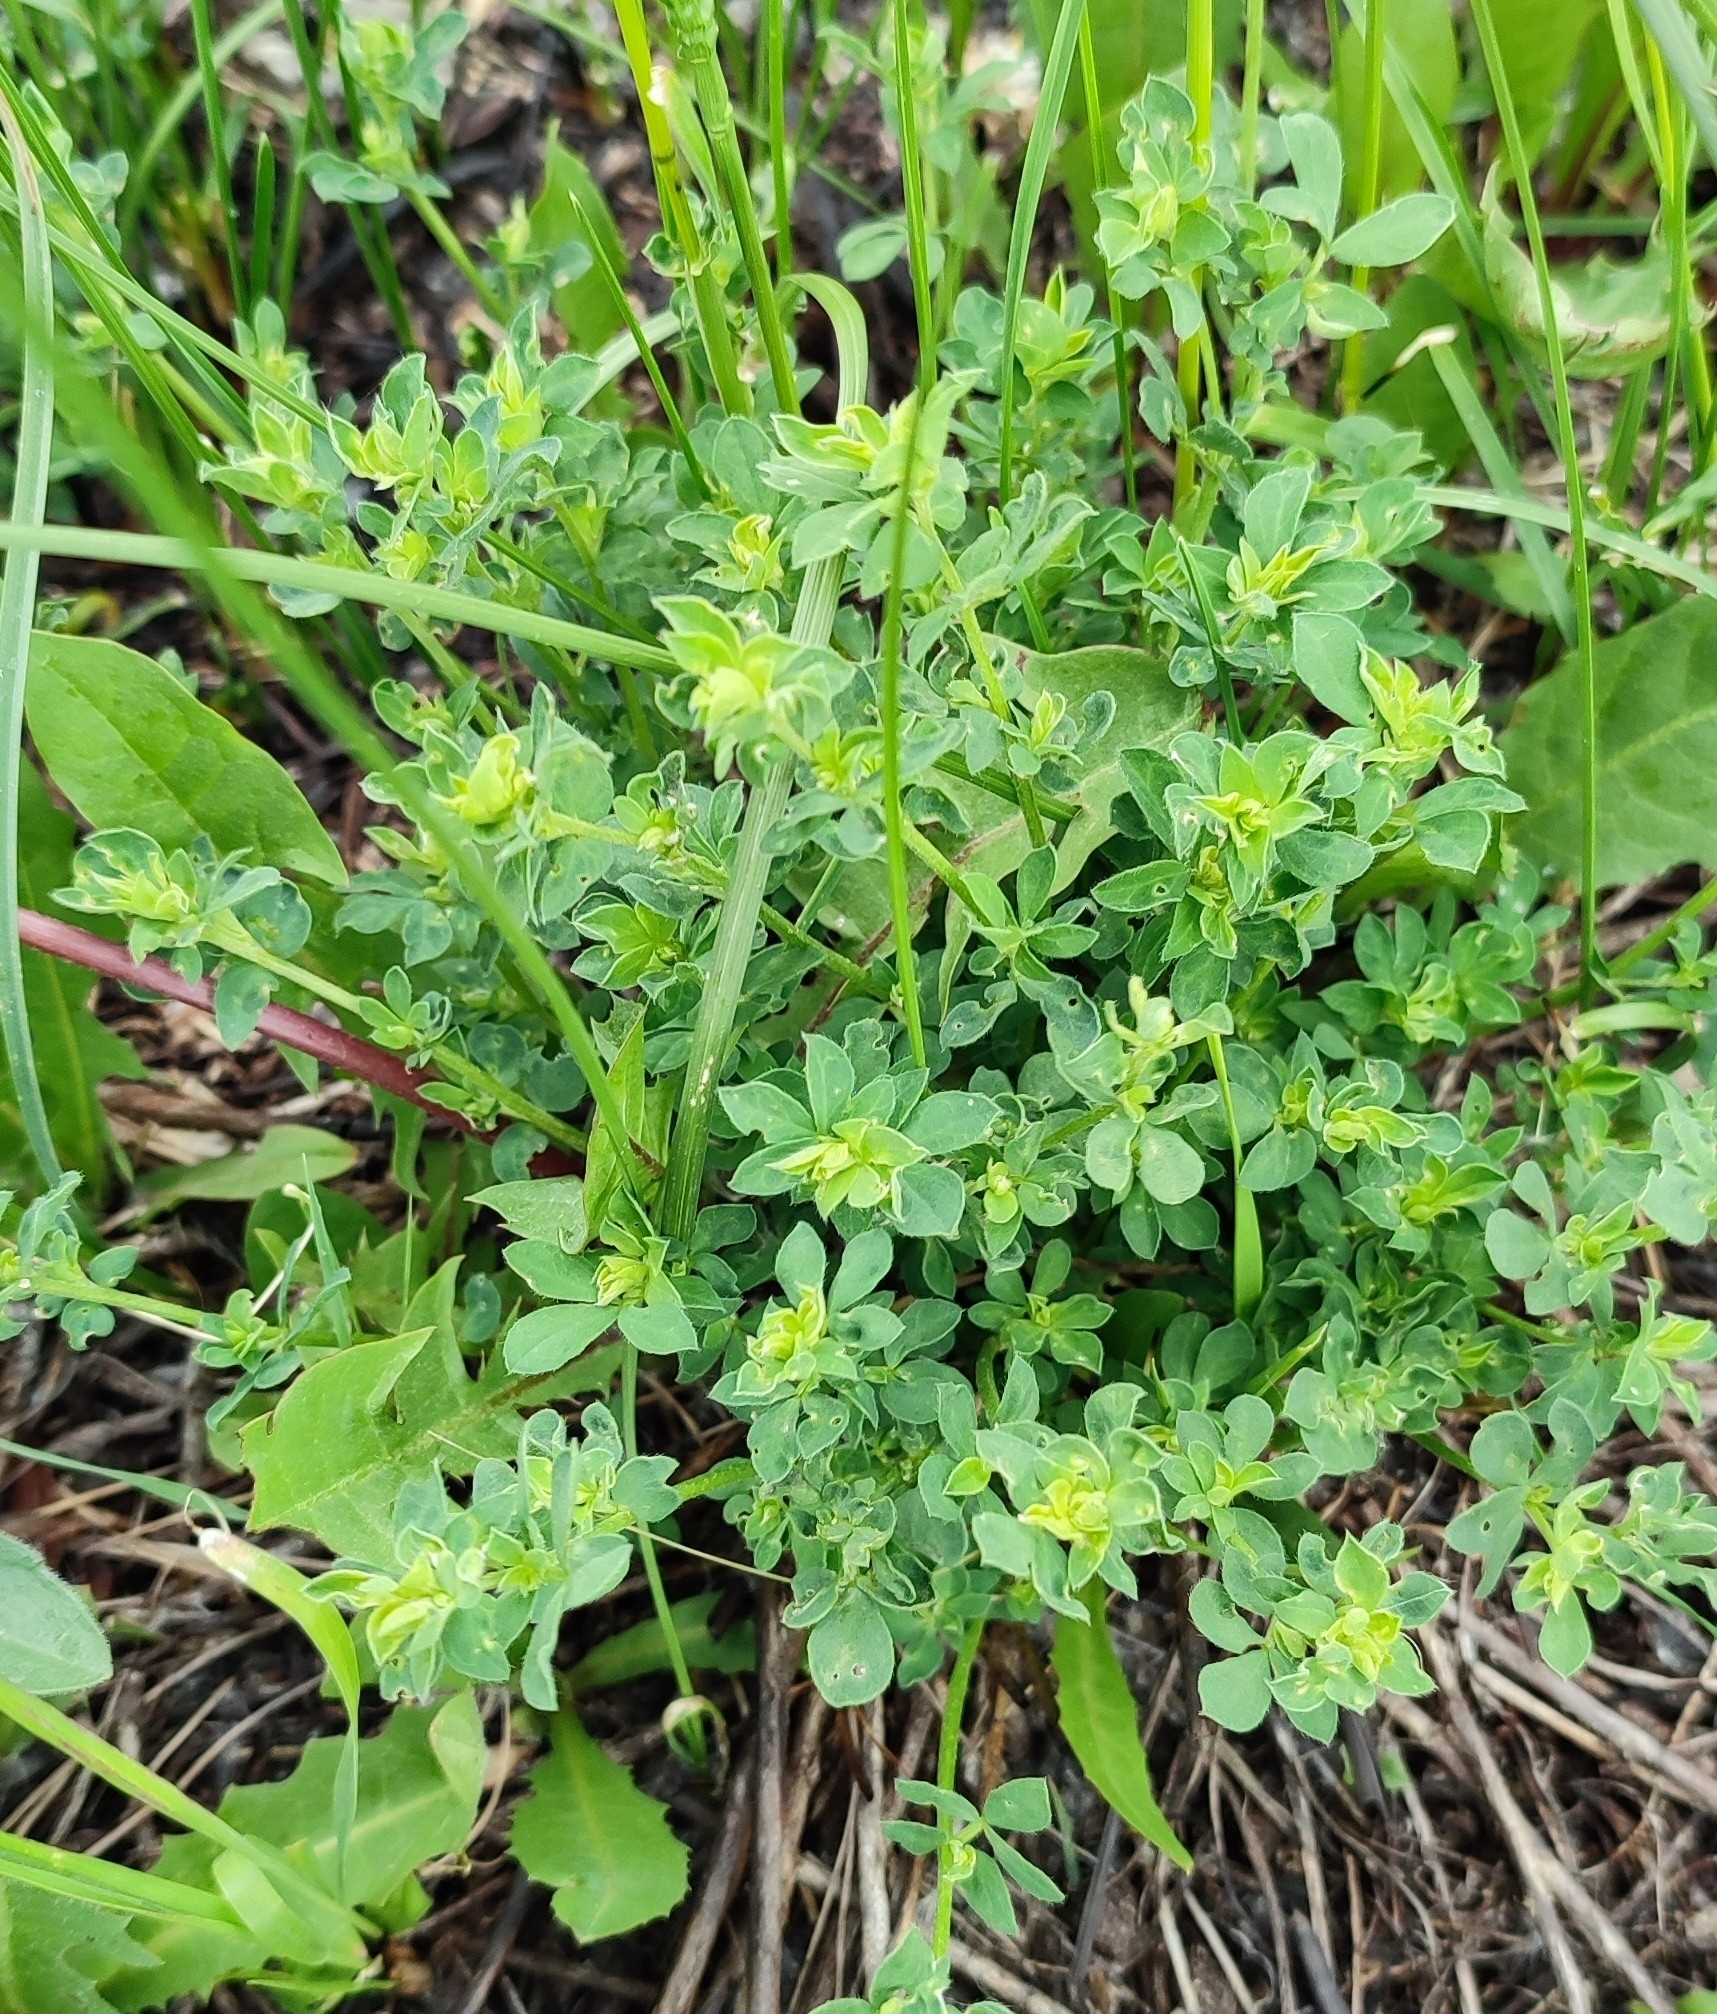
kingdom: Plantae
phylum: Tracheophyta
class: Magnoliopsida
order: Fabales
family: Fabaceae
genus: Lotus
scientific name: Lotus ucrainicus
